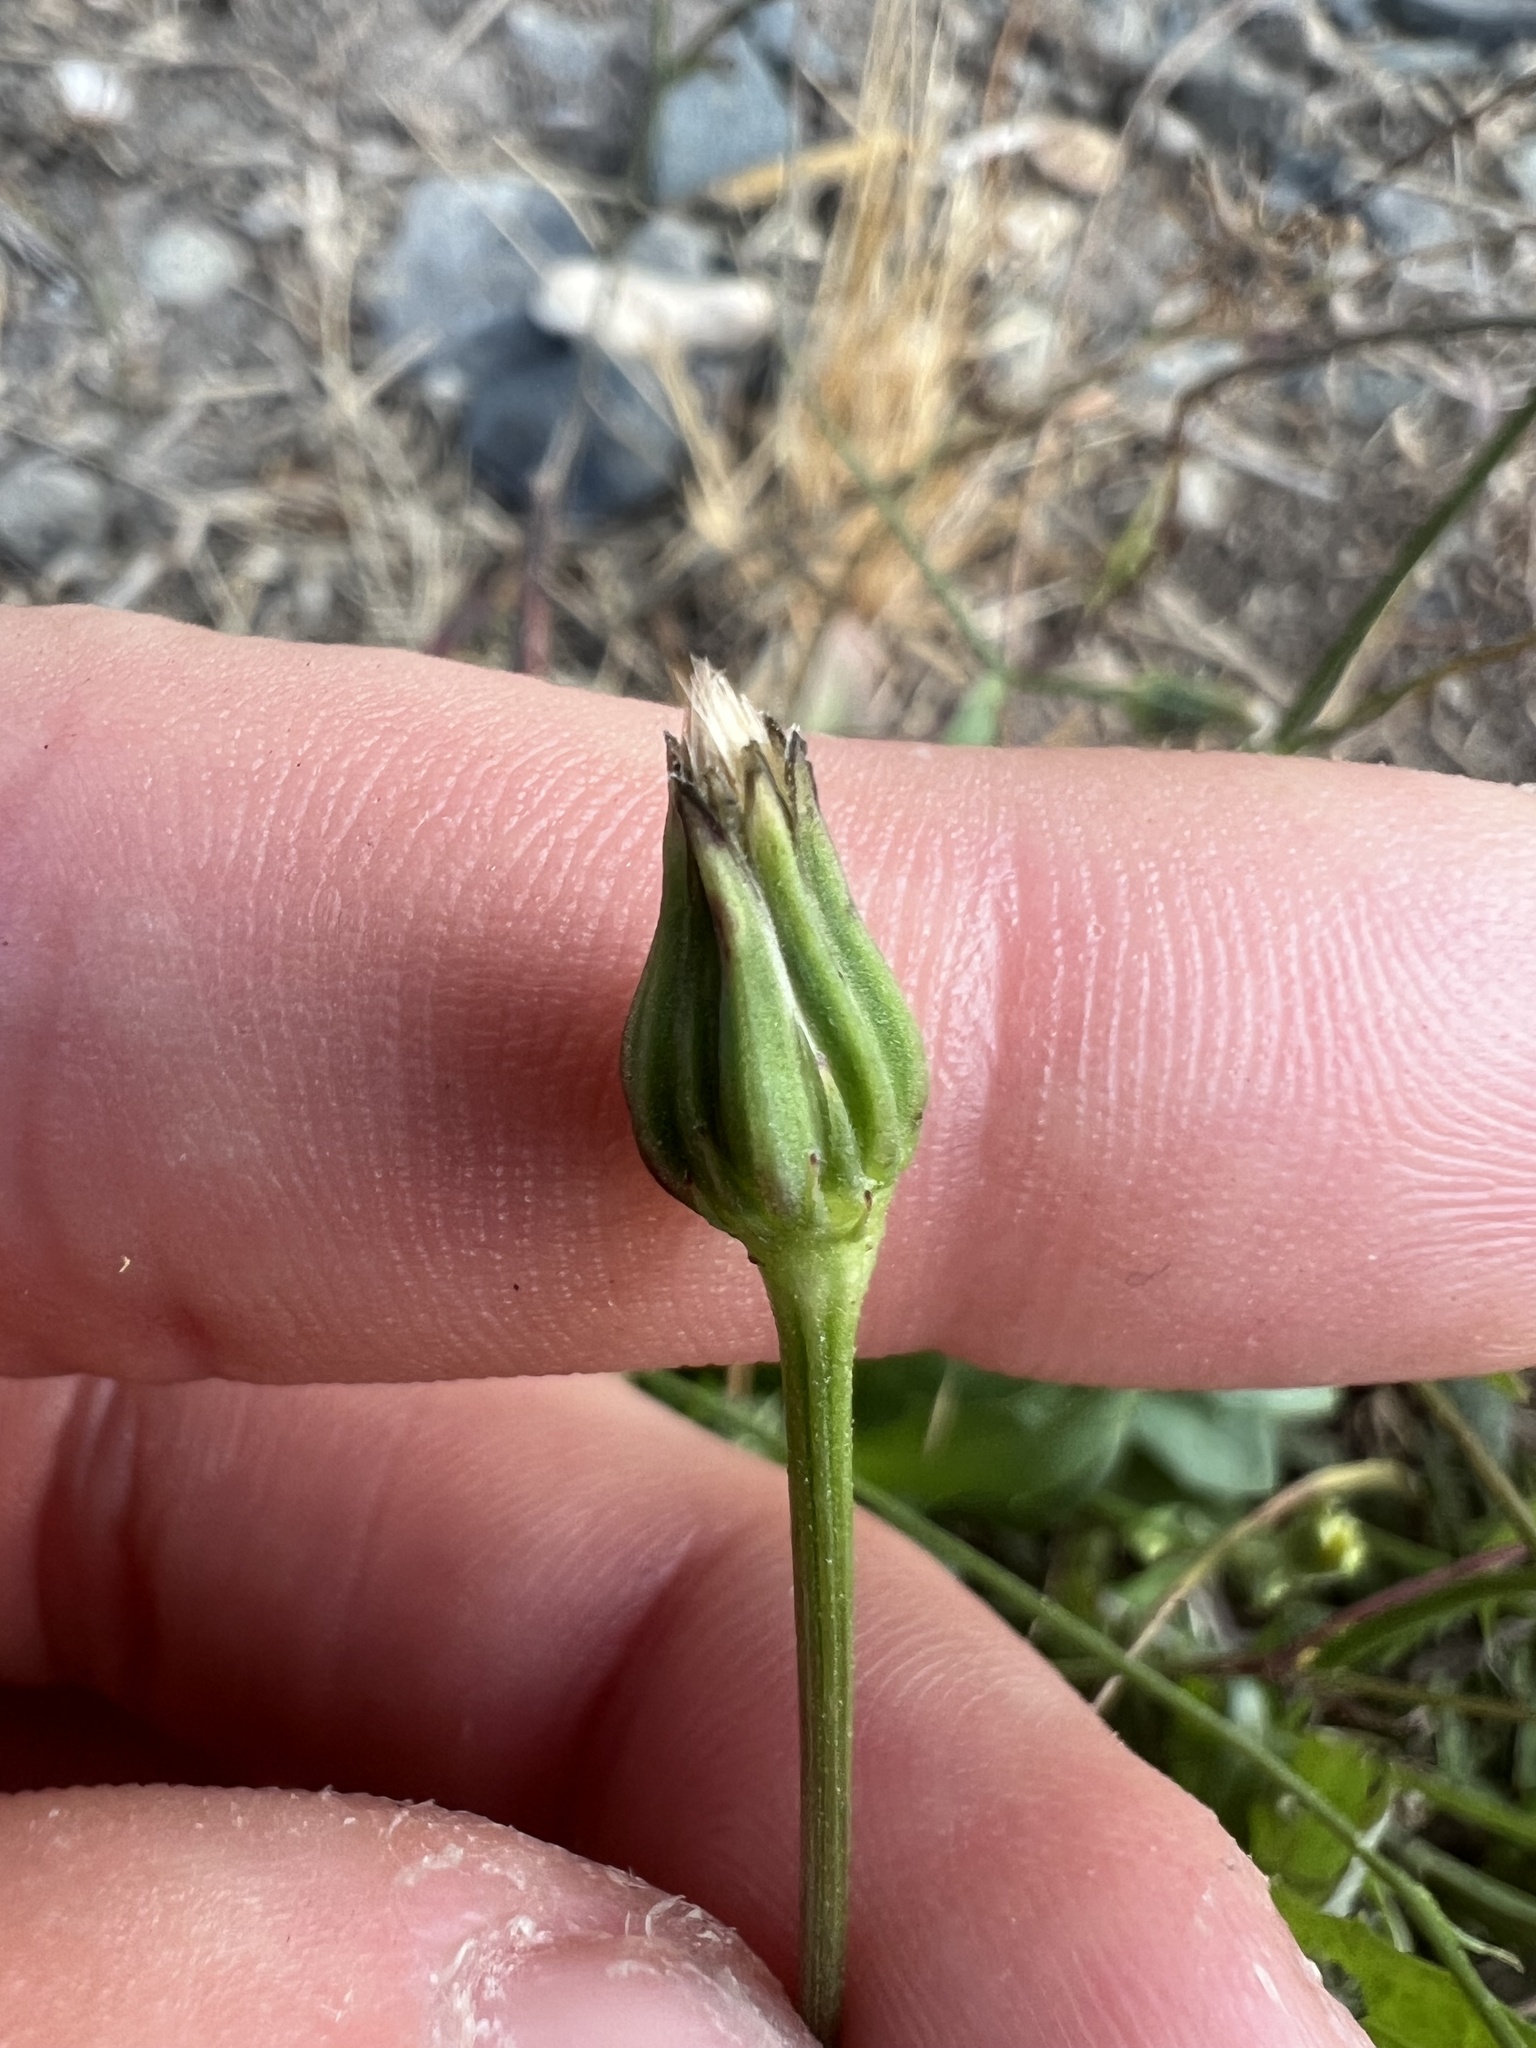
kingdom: Plantae
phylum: Tracheophyta
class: Magnoliopsida
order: Asterales
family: Asteraceae
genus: Hypochaeris
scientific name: Hypochaeris radicata
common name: Flatweed
